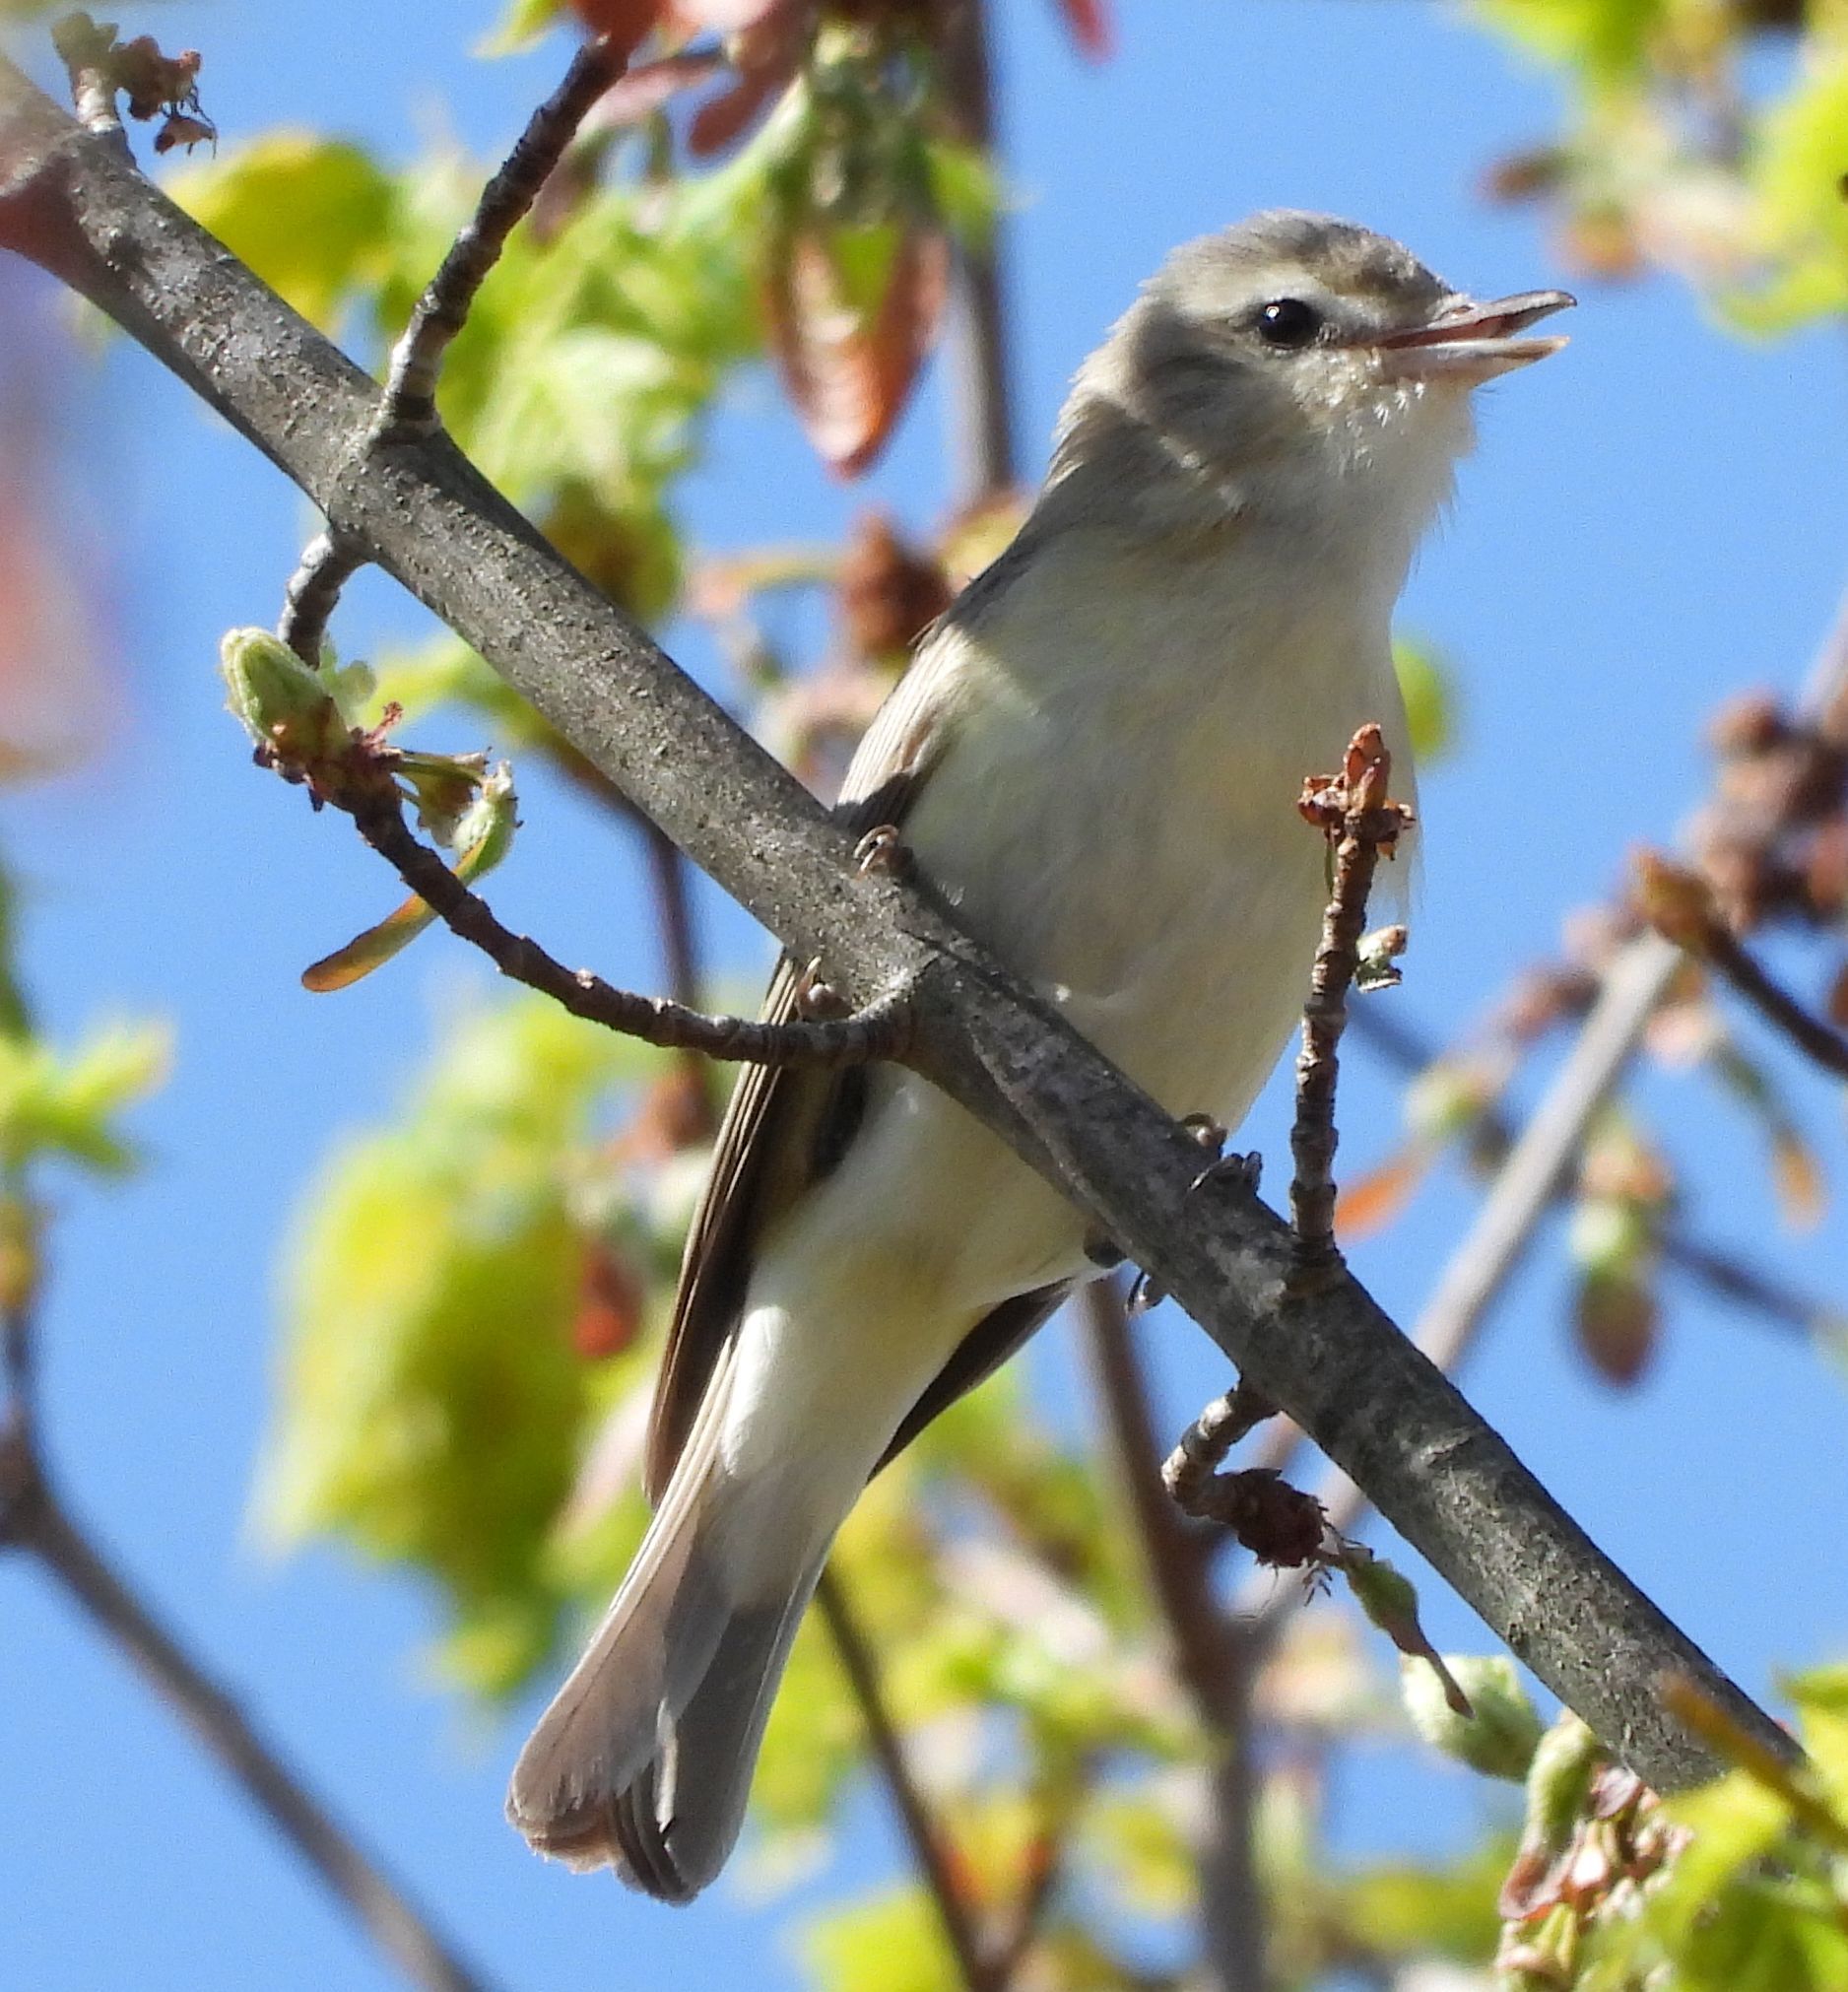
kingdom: Animalia
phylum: Chordata
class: Aves
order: Passeriformes
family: Vireonidae
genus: Vireo
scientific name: Vireo gilvus
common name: Warbling vireo
